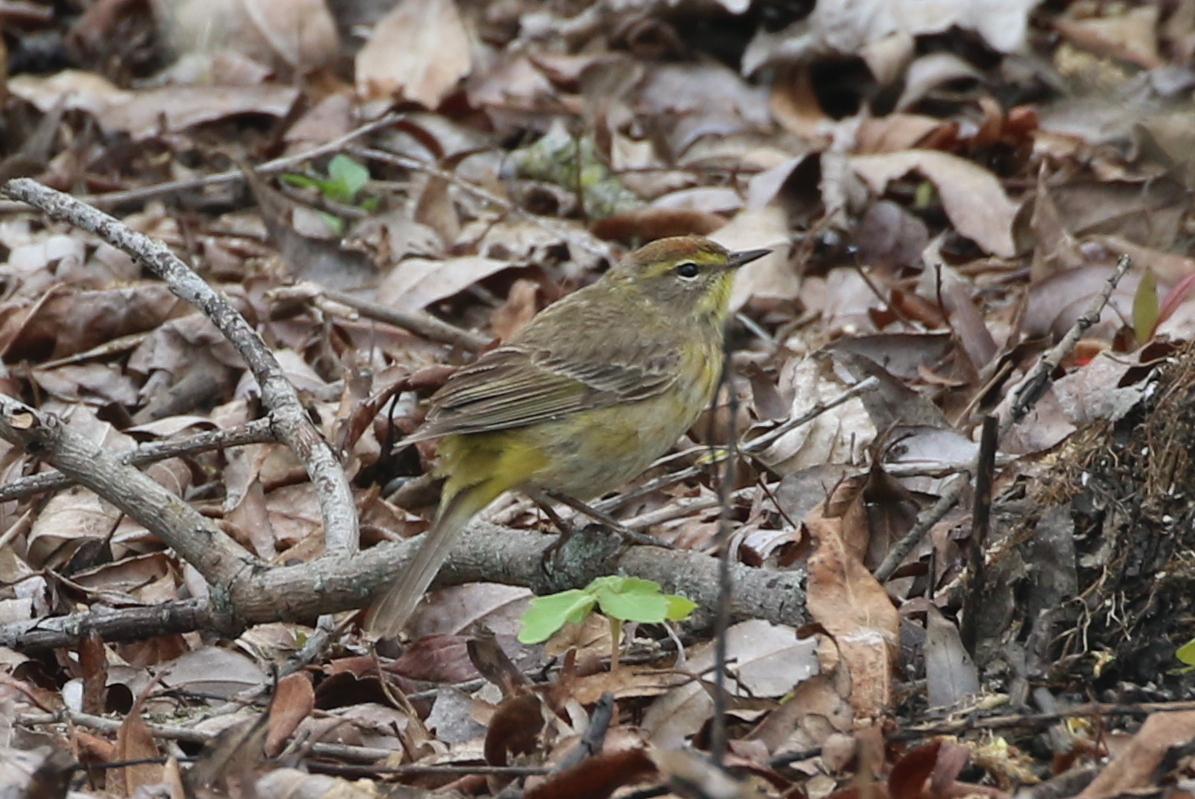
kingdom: Animalia
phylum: Chordata
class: Aves
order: Passeriformes
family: Parulidae
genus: Setophaga
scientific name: Setophaga palmarum
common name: Palm warbler
